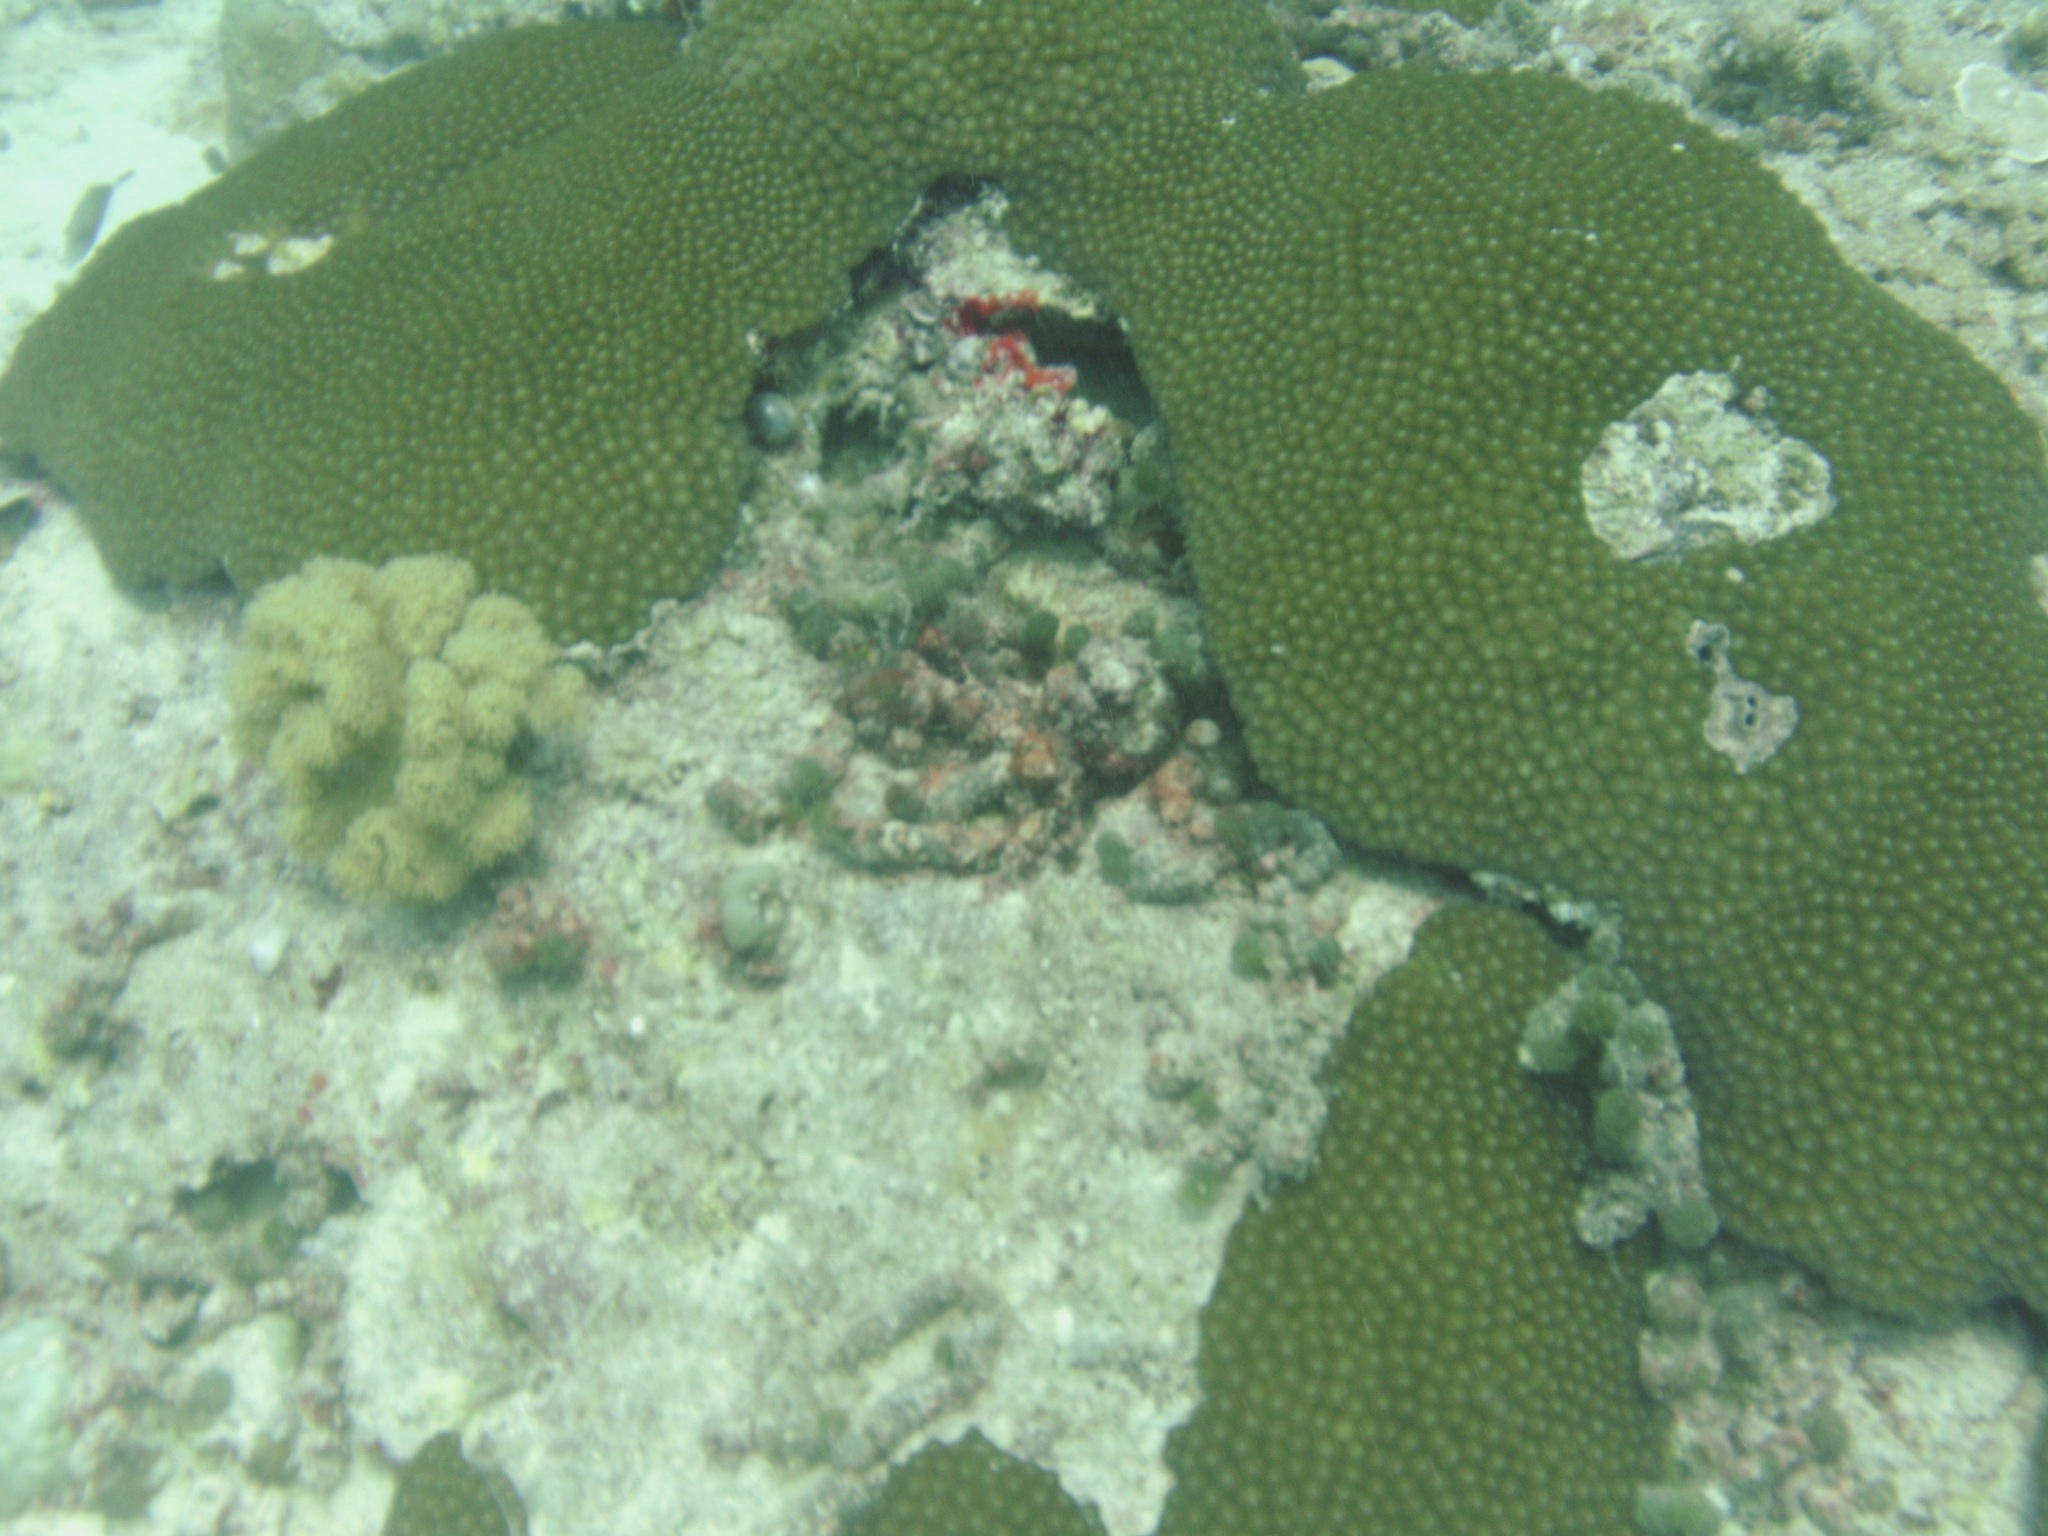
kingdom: Animalia
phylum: Cnidaria
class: Anthozoa
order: Scleractinia
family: Diploastraeidae
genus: Diploastrea
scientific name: Diploastrea heliopora
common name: Double-star coral
